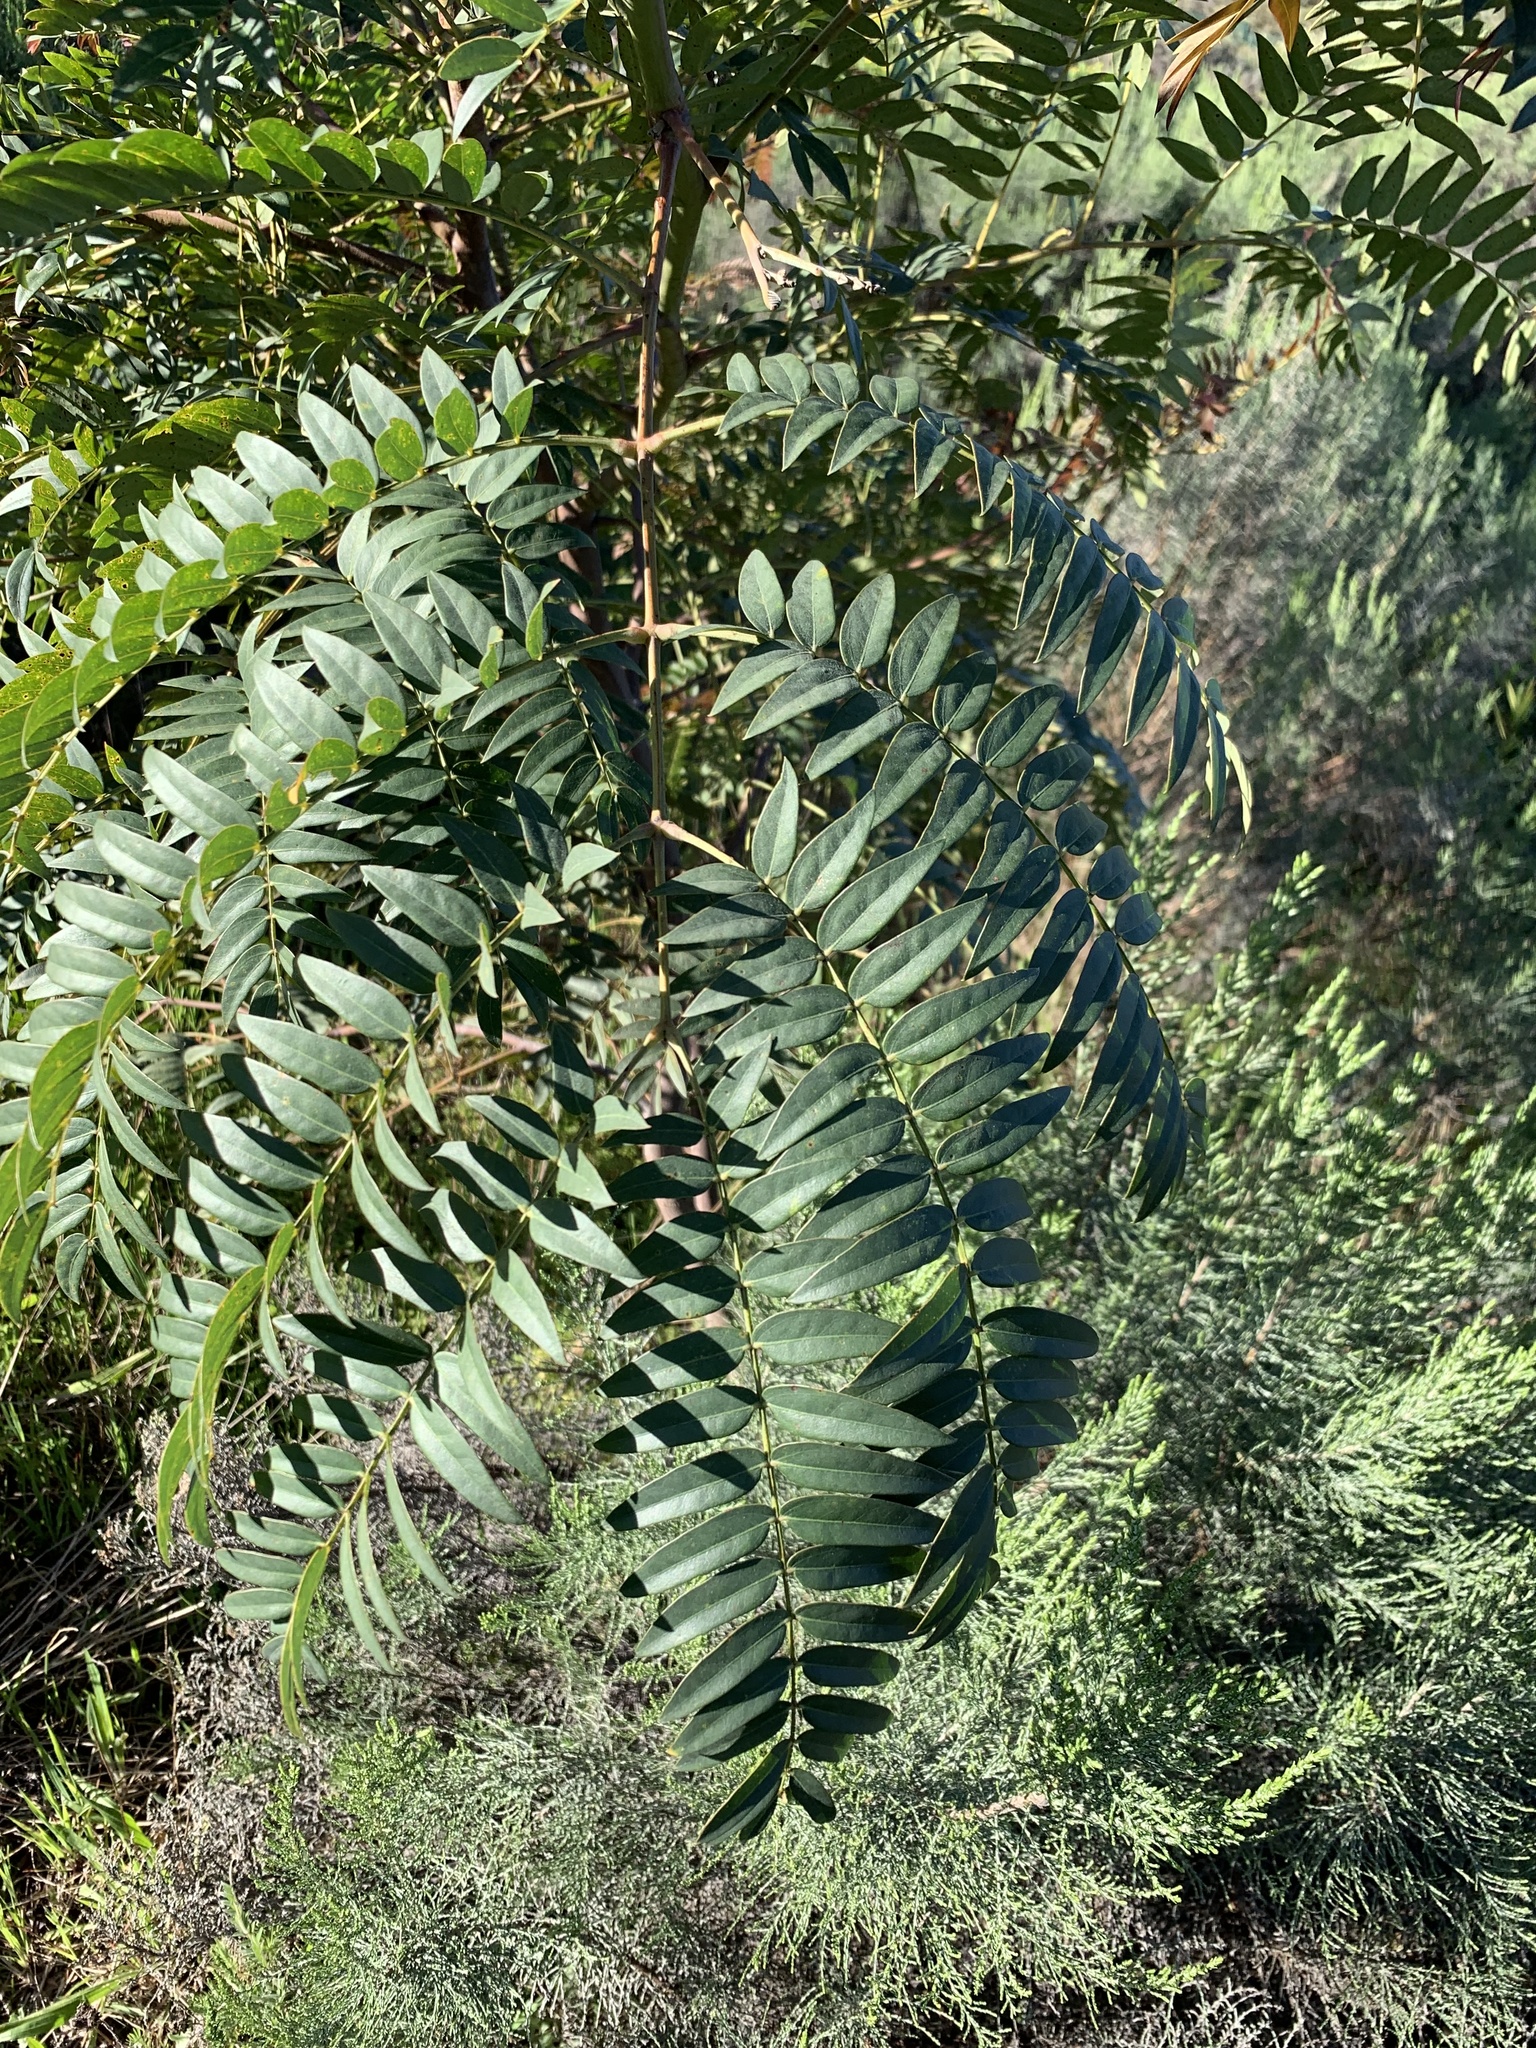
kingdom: Plantae
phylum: Tracheophyta
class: Magnoliopsida
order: Fabales
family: Fabaceae
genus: Acacia
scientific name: Acacia elata
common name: Cedar wattle
